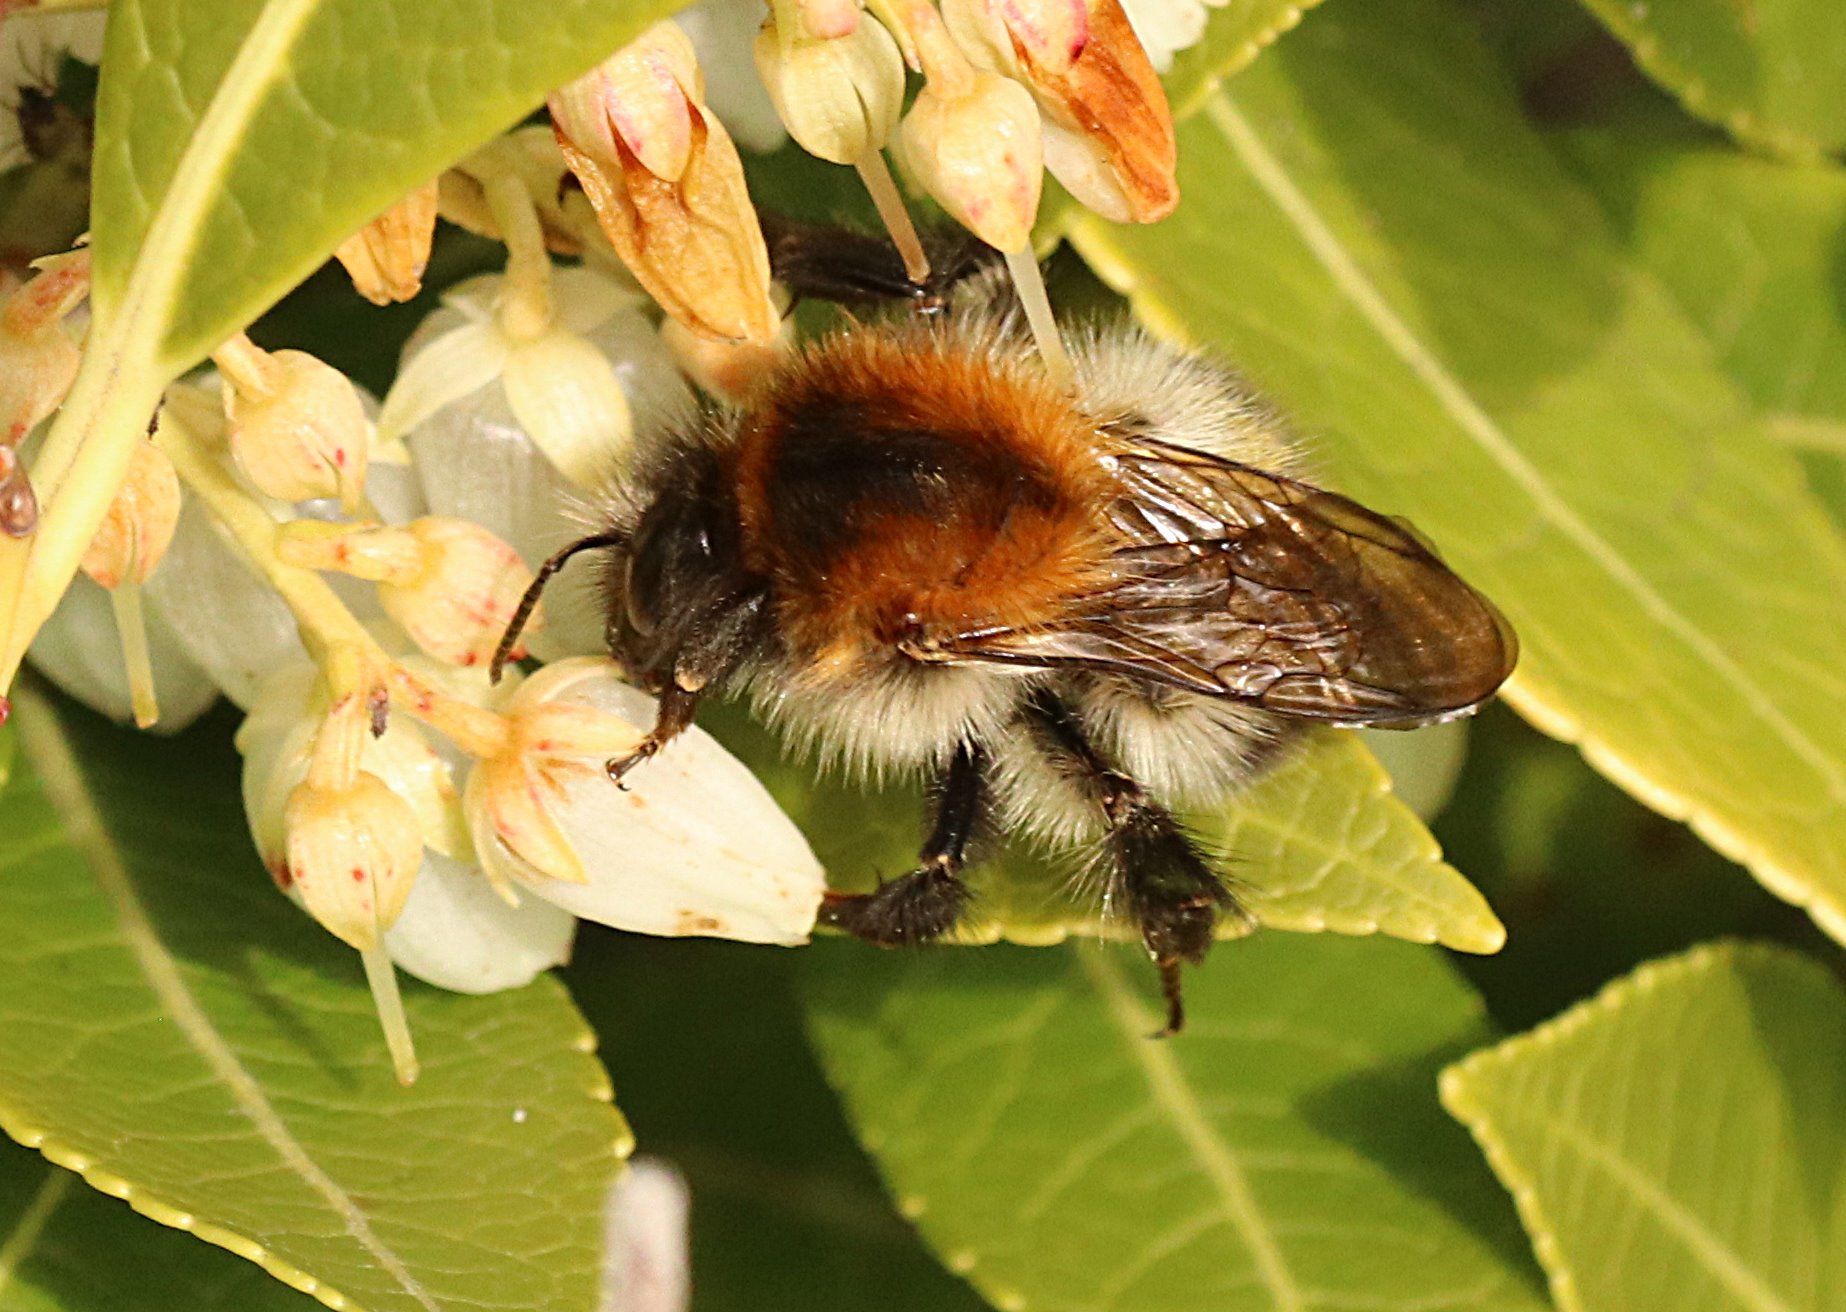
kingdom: Animalia
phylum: Arthropoda
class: Insecta
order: Hymenoptera
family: Apidae
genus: Bombus
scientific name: Bombus pascuorum
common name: Common carder bee
